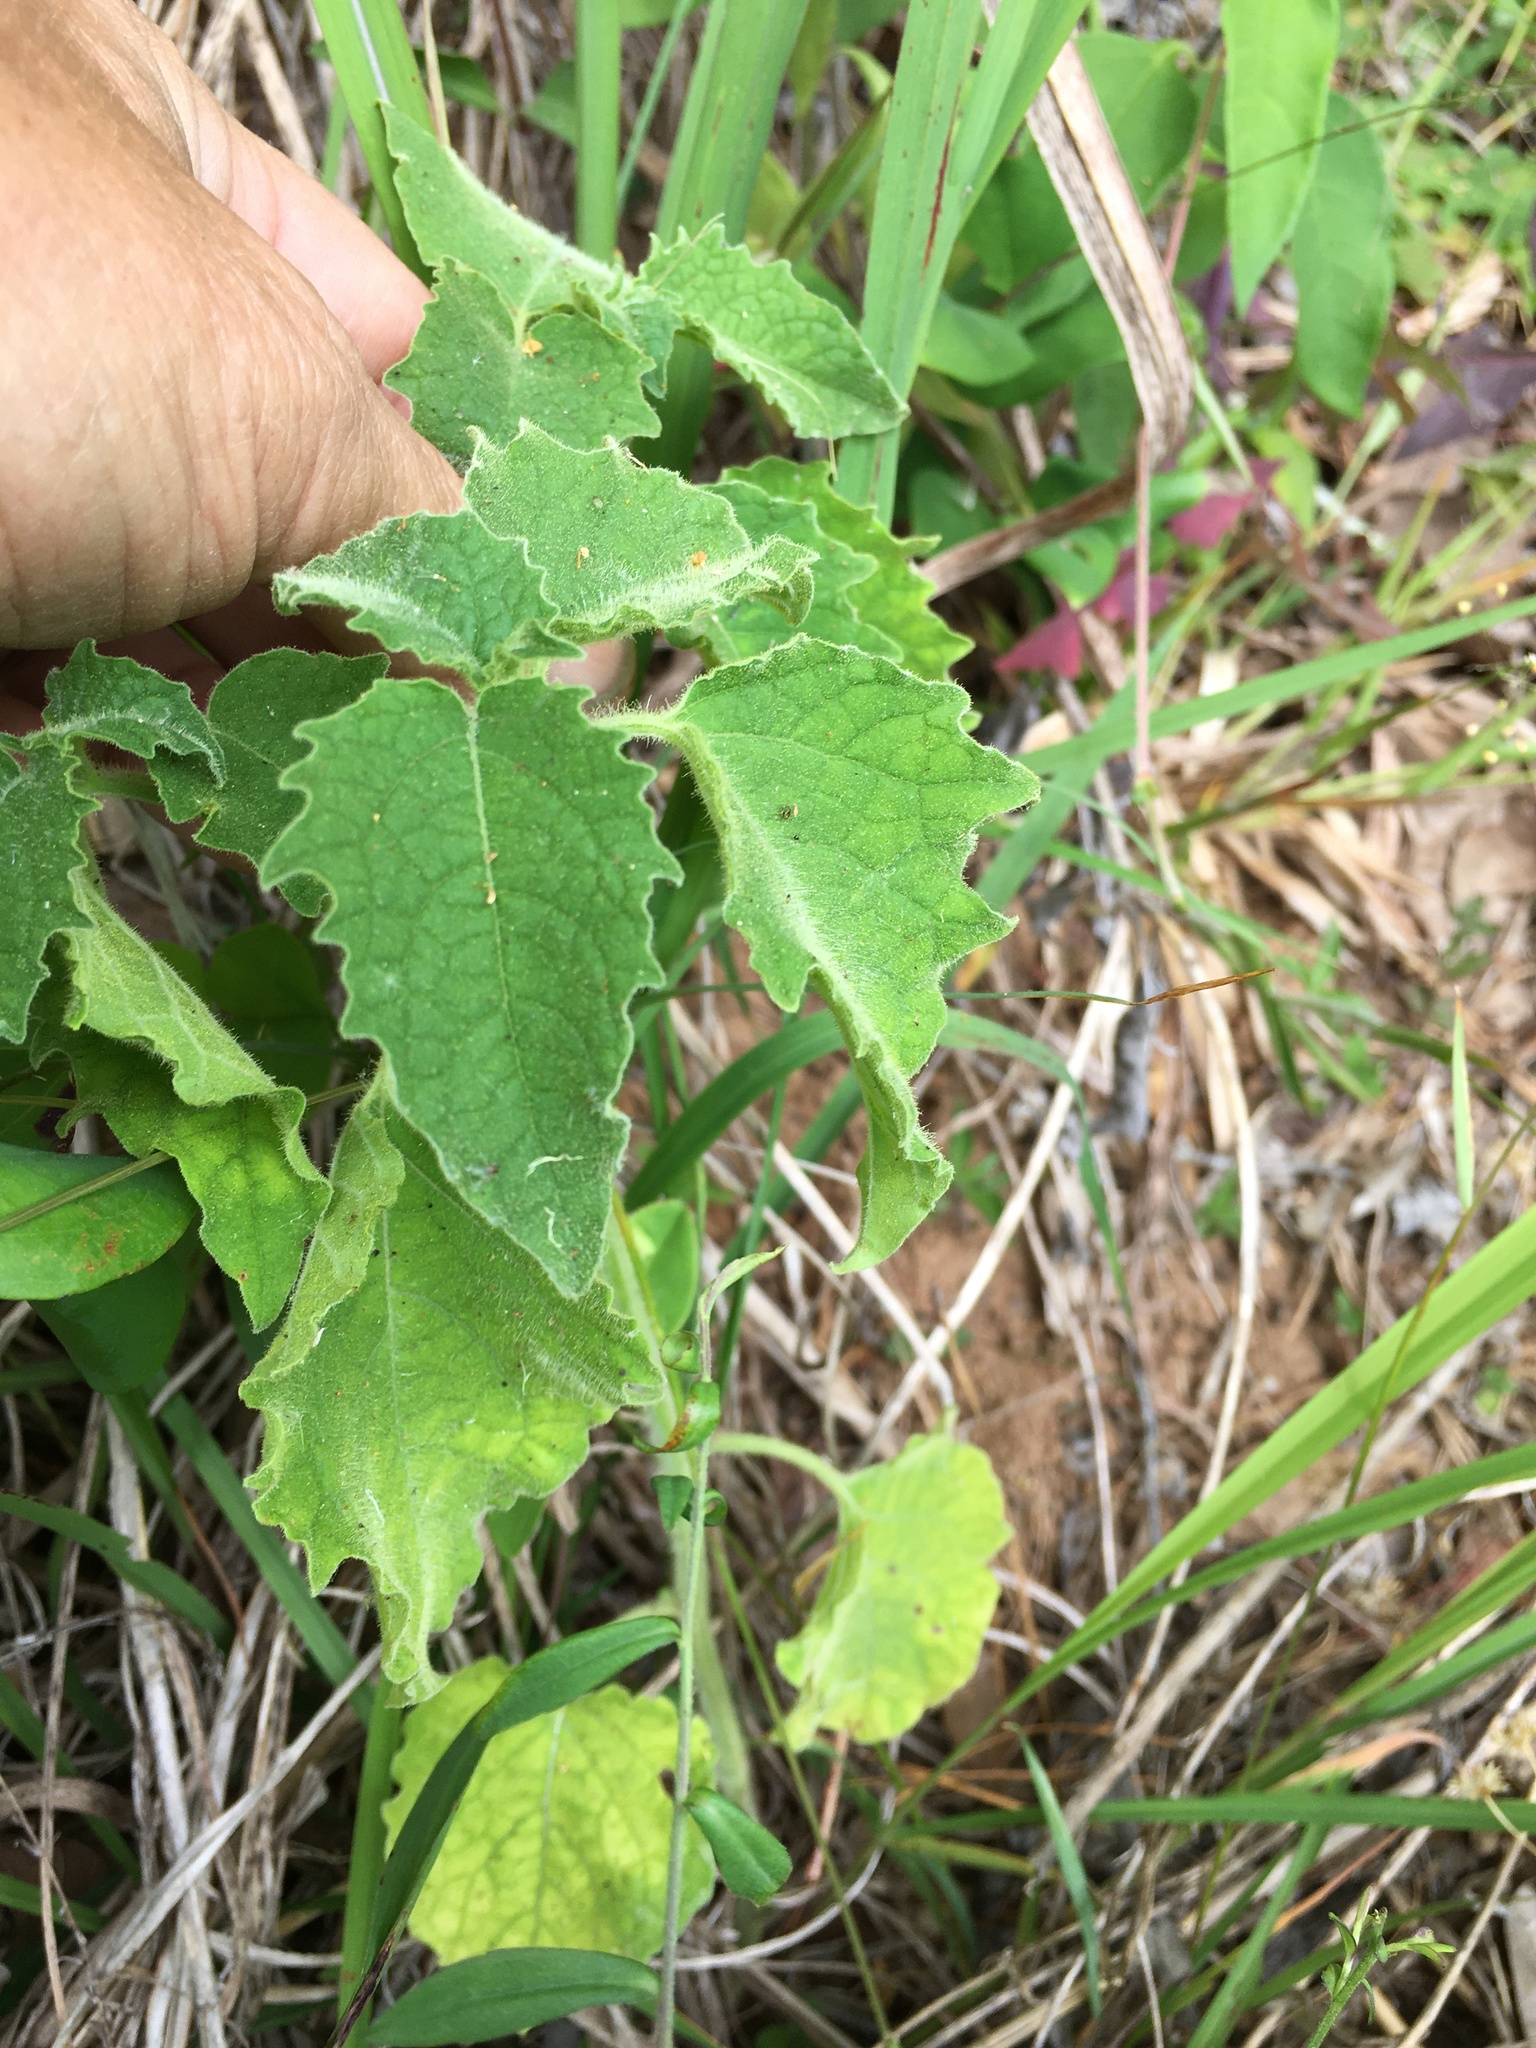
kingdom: Plantae
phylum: Tracheophyta
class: Magnoliopsida
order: Solanales
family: Solanaceae
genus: Physalis
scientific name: Physalis heterophylla
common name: Clammy ground-cherry
